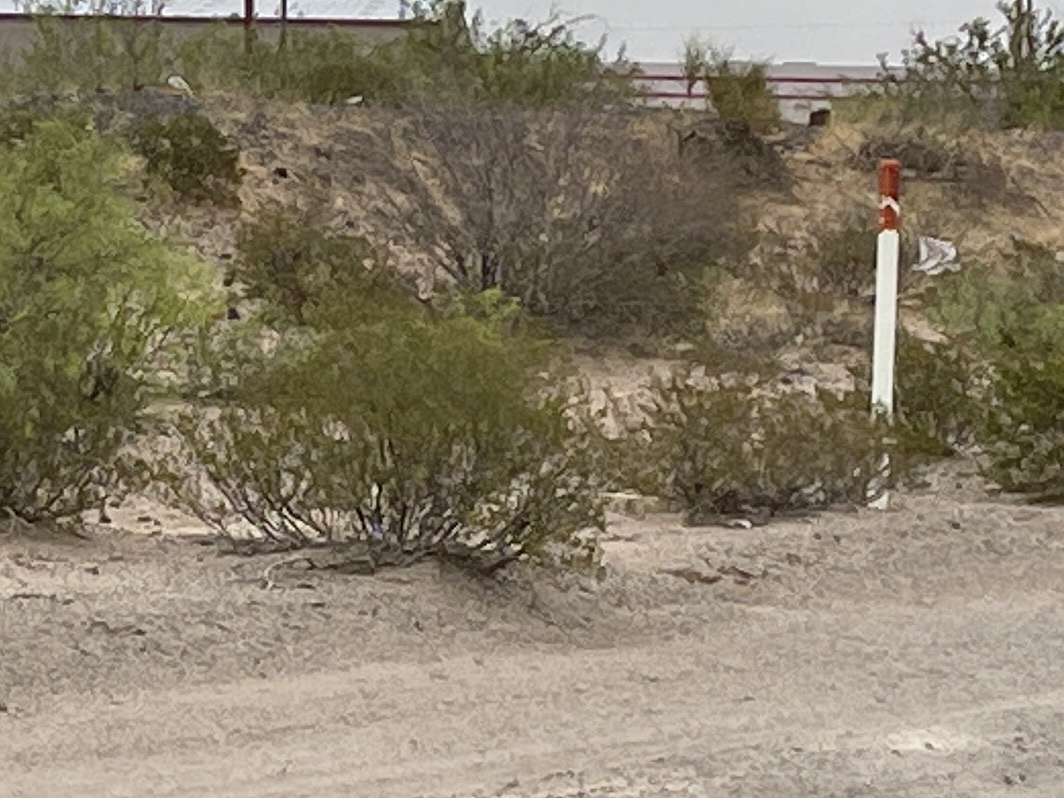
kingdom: Plantae
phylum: Tracheophyta
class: Magnoliopsida
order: Zygophyllales
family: Zygophyllaceae
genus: Larrea
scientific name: Larrea tridentata
